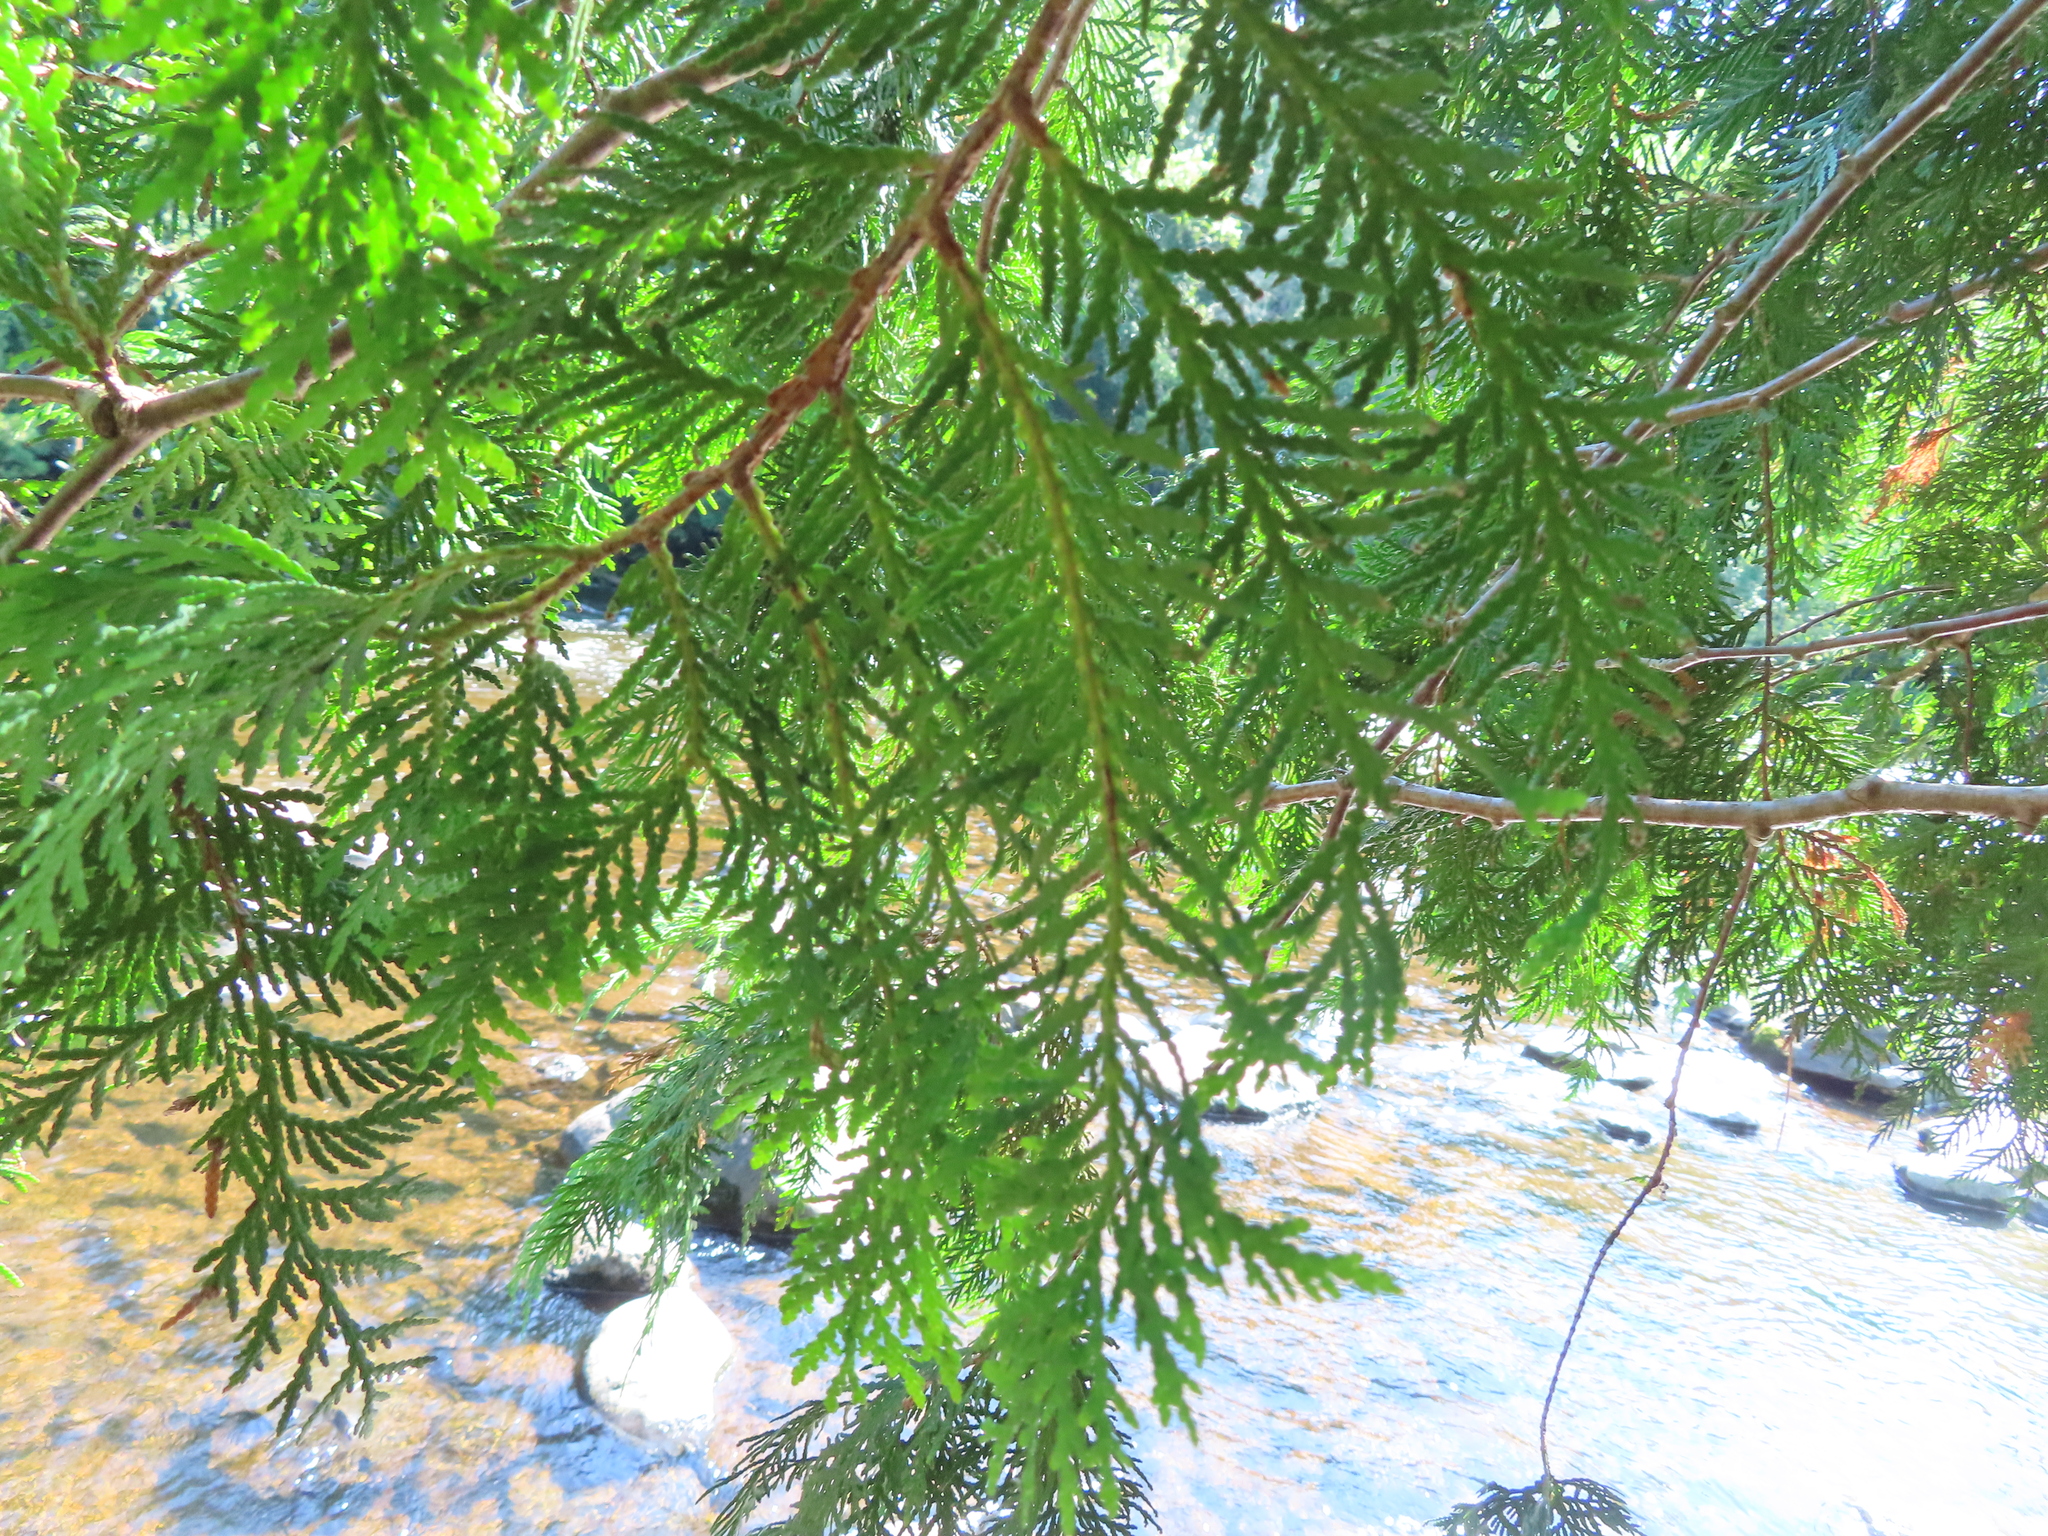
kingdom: Plantae
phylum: Tracheophyta
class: Pinopsida
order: Pinales
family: Cupressaceae
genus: Thuja
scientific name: Thuja occidentalis
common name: Northern white-cedar
